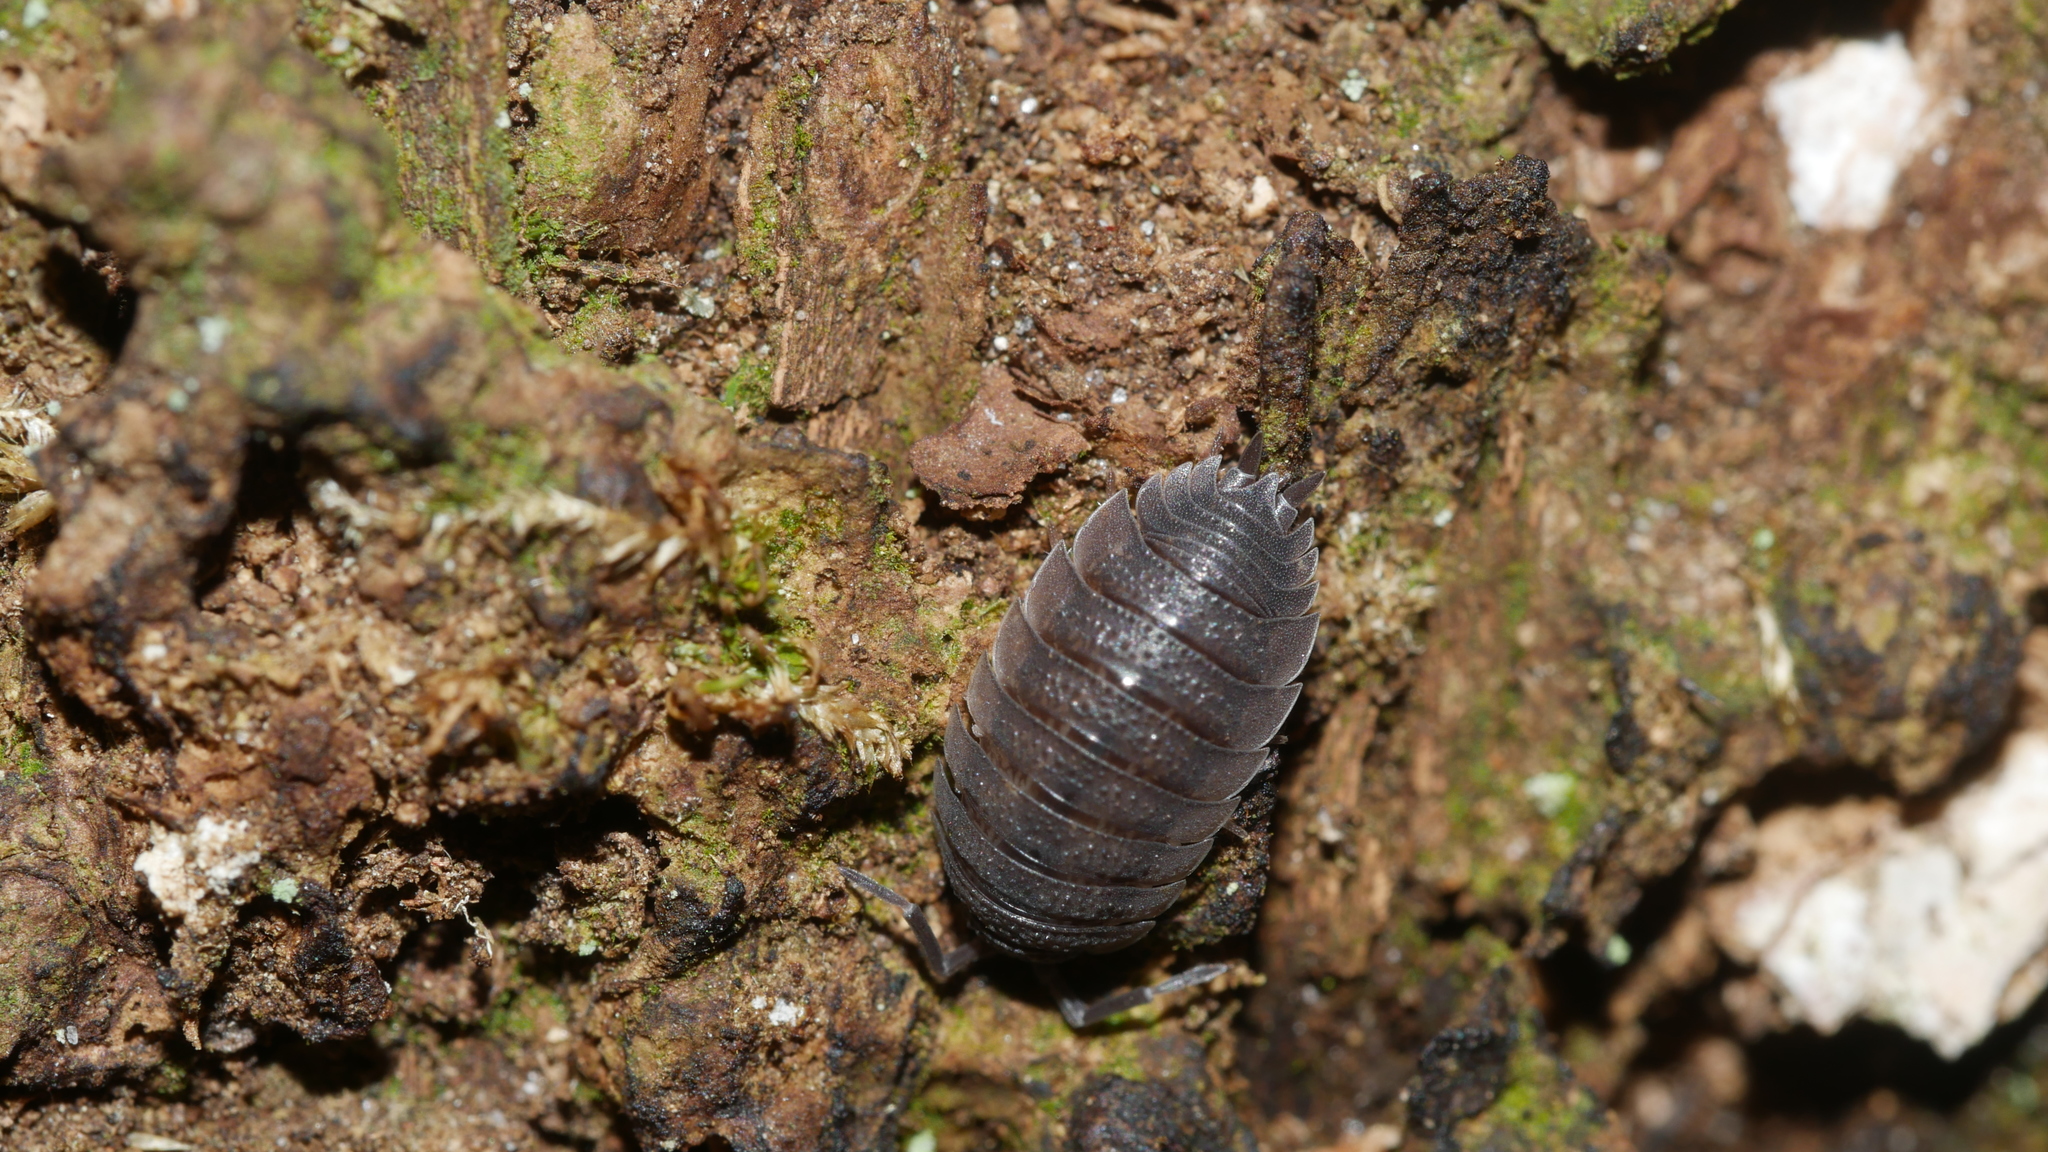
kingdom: Animalia
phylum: Arthropoda
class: Malacostraca
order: Isopoda
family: Porcellionidae
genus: Porcellio
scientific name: Porcellio scaber
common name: Common rough woodlouse
